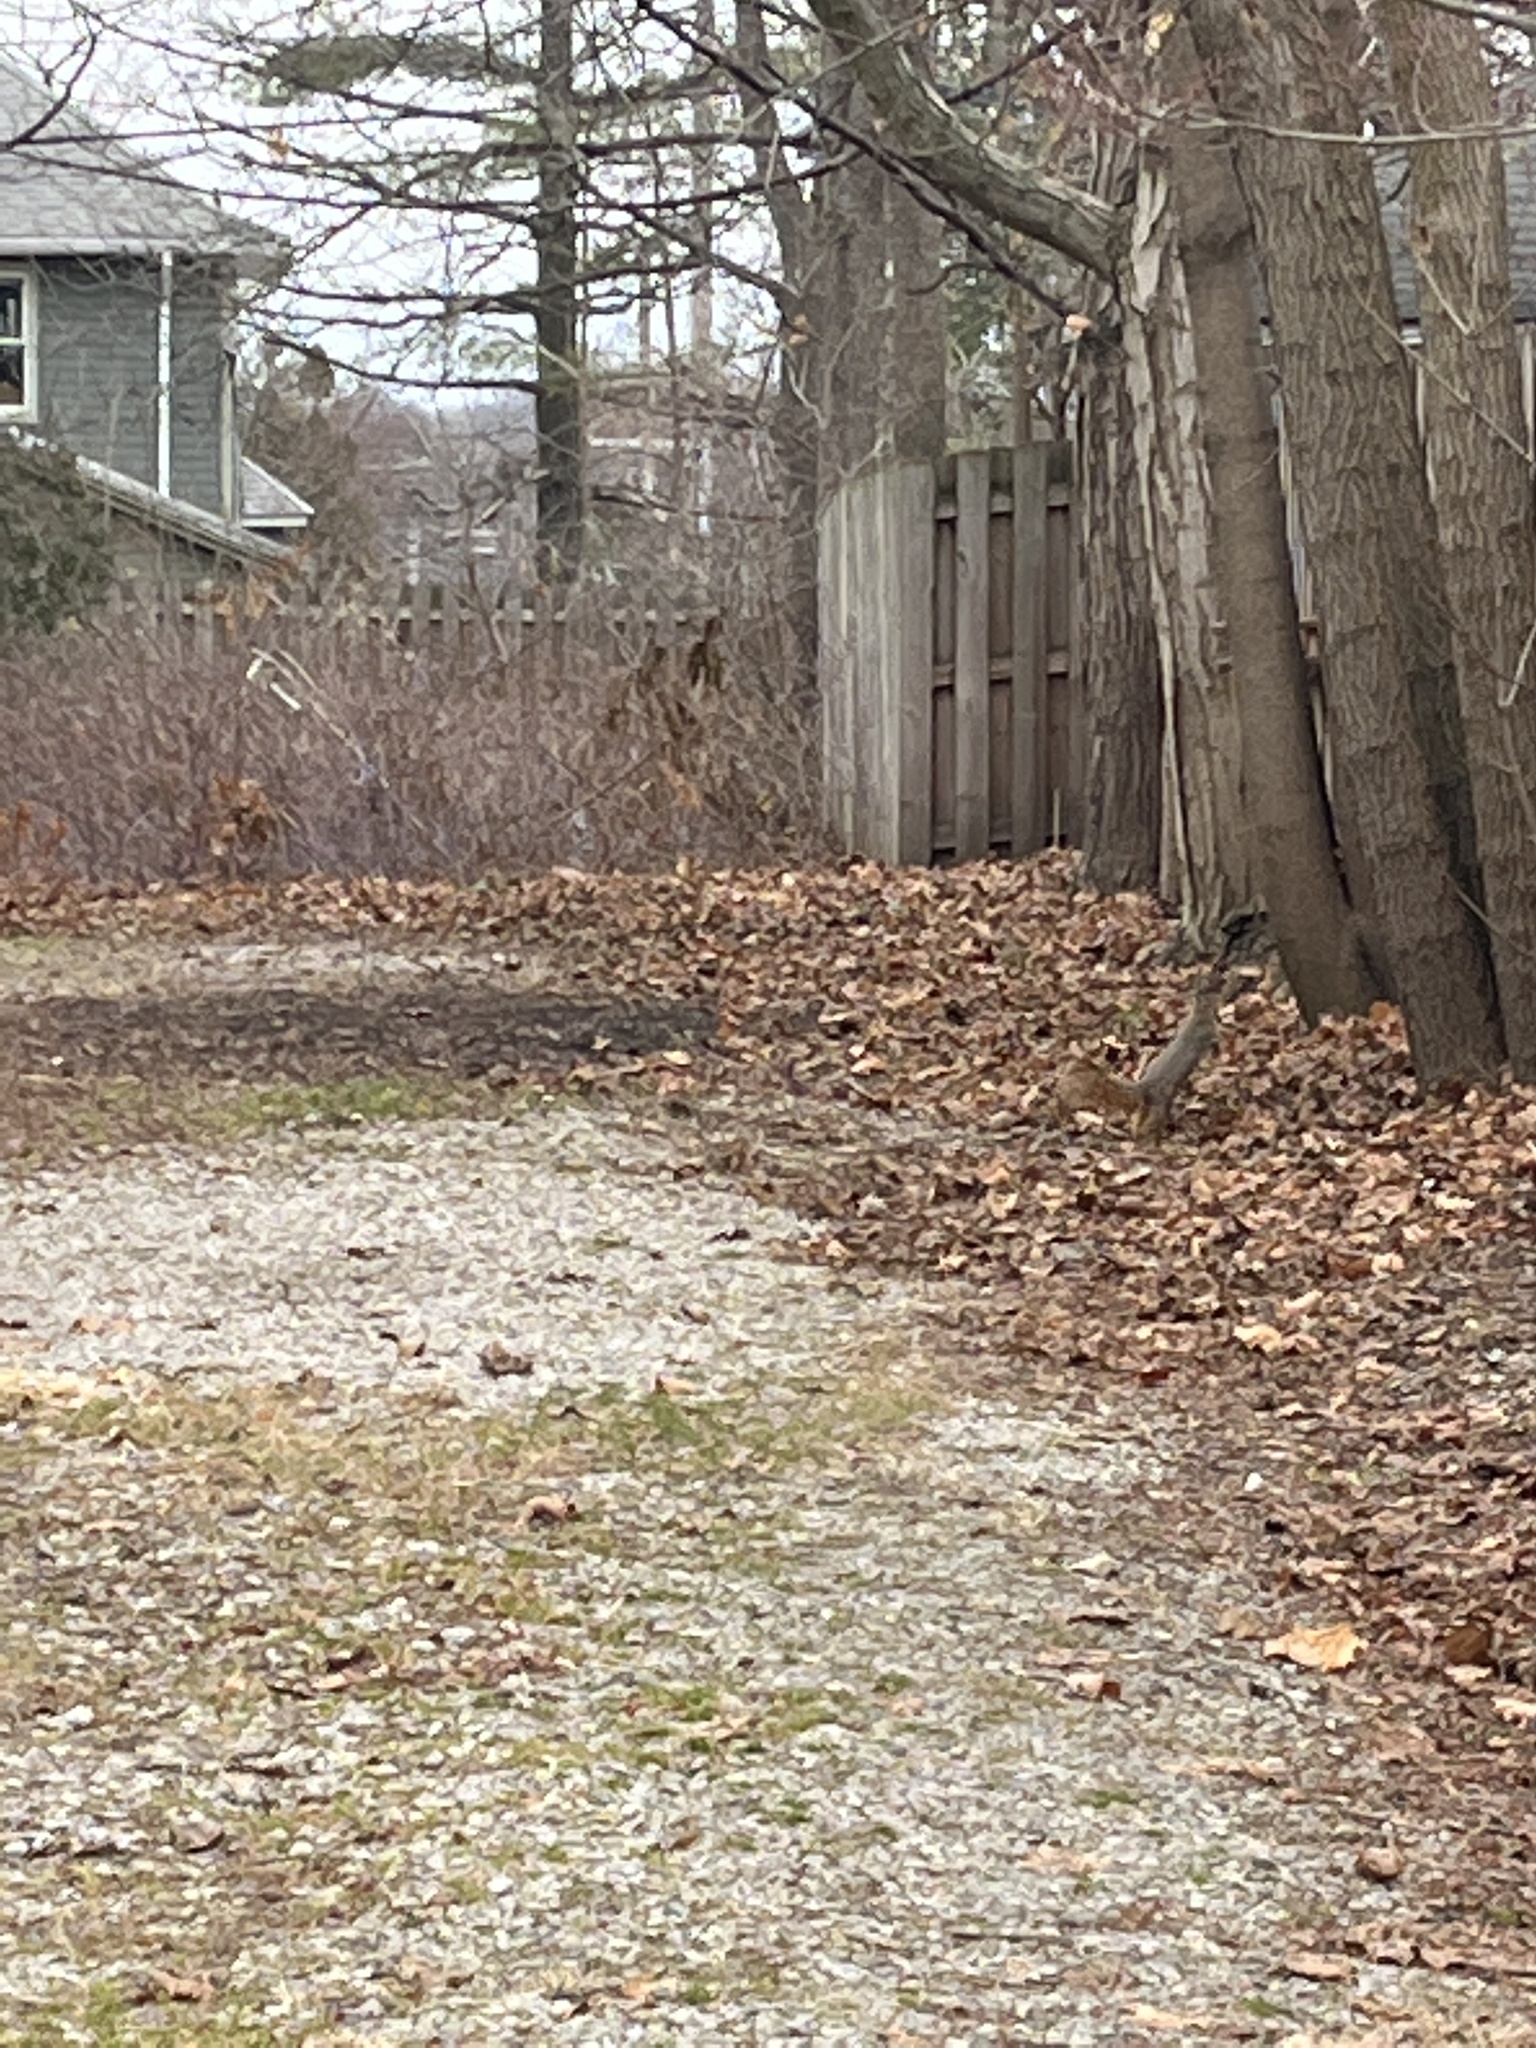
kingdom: Animalia
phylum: Chordata
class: Mammalia
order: Rodentia
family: Sciuridae
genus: Sciurus
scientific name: Sciurus niger
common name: Fox squirrel
